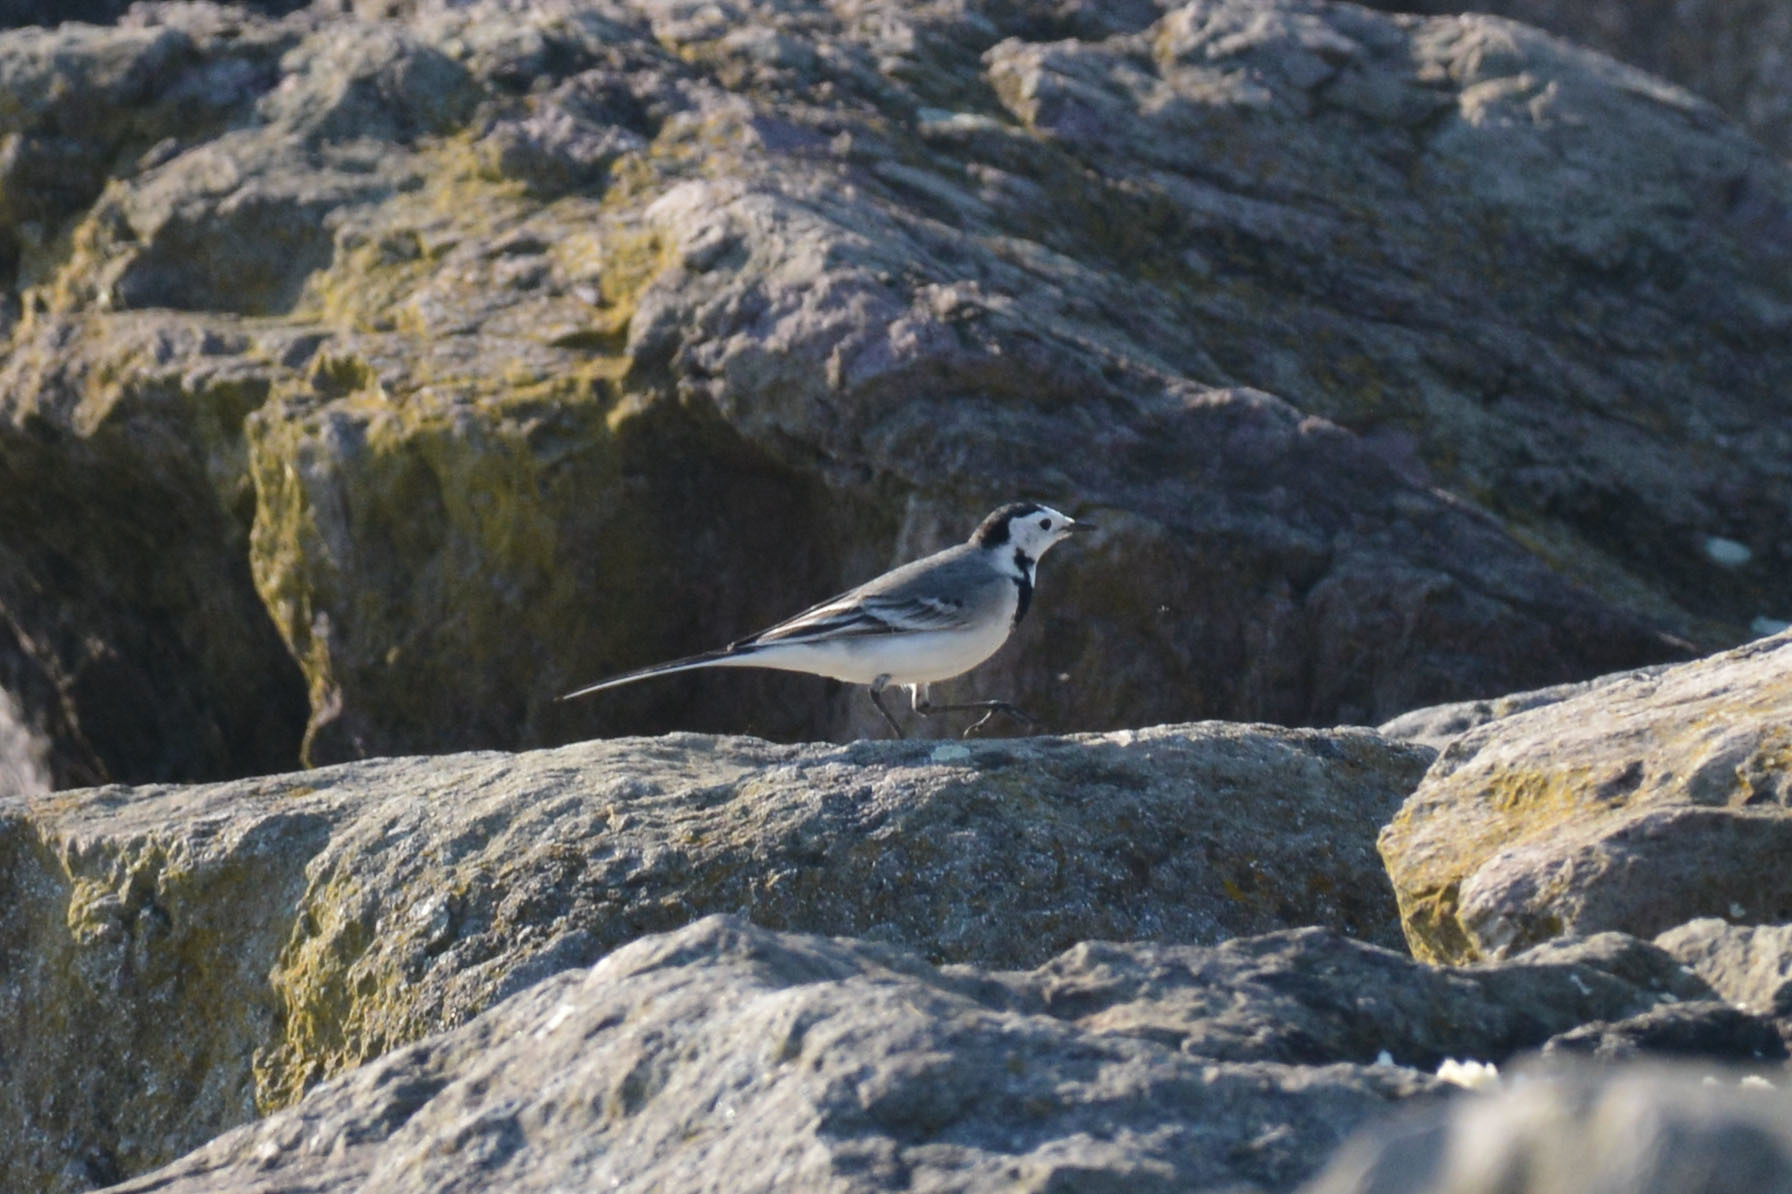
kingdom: Animalia
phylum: Chordata
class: Aves
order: Passeriformes
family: Motacillidae
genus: Motacilla
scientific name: Motacilla alba
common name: White wagtail
